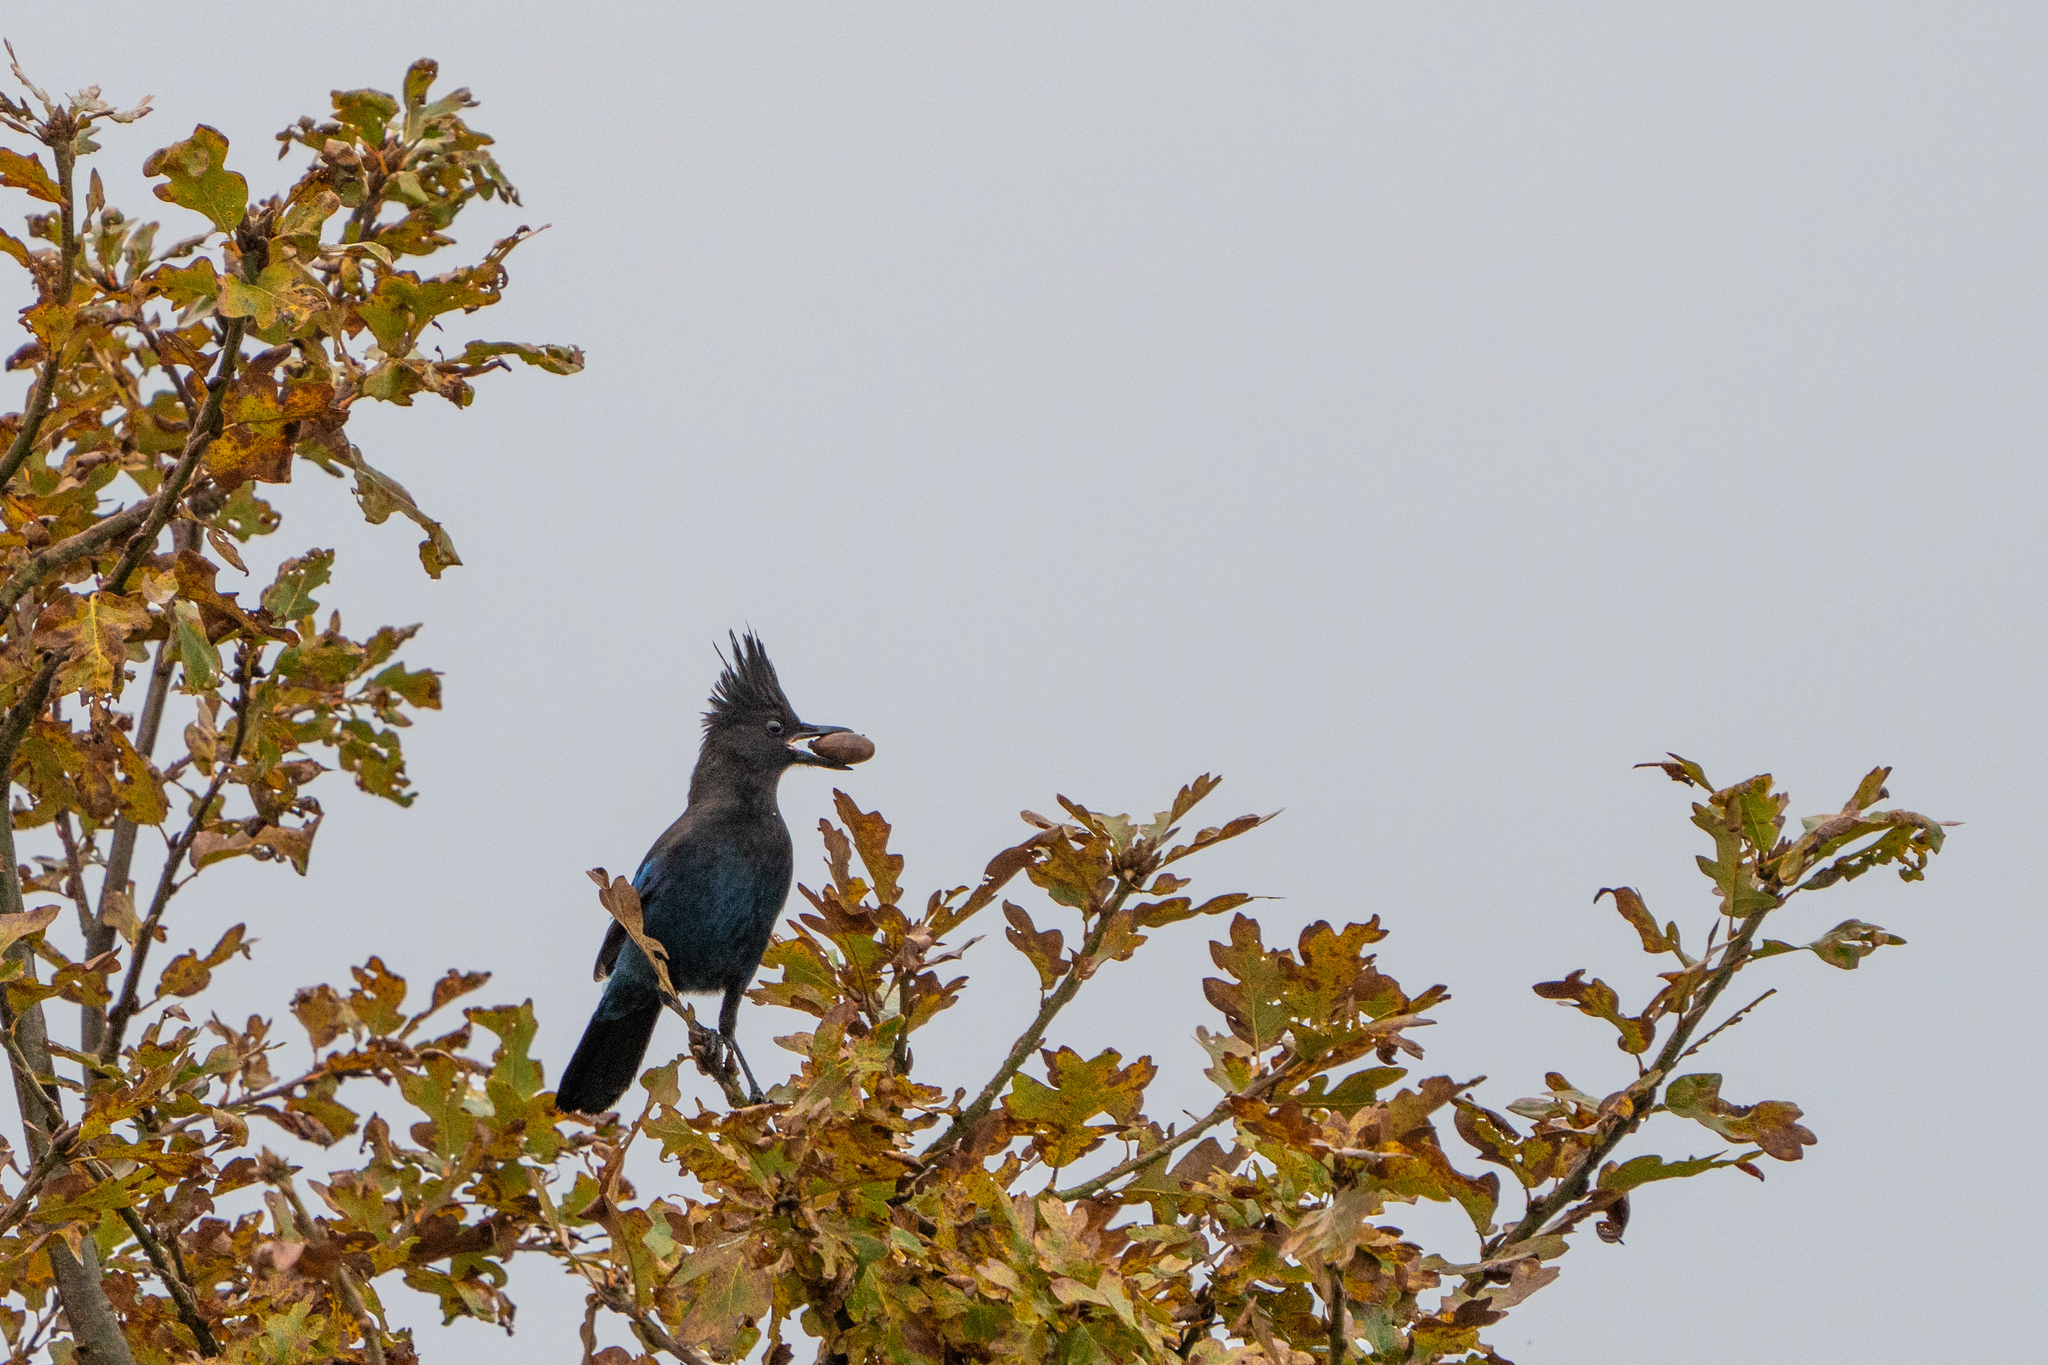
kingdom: Animalia
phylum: Chordata
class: Aves
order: Passeriformes
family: Corvidae
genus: Cyanocitta
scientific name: Cyanocitta stelleri
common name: Steller's jay
